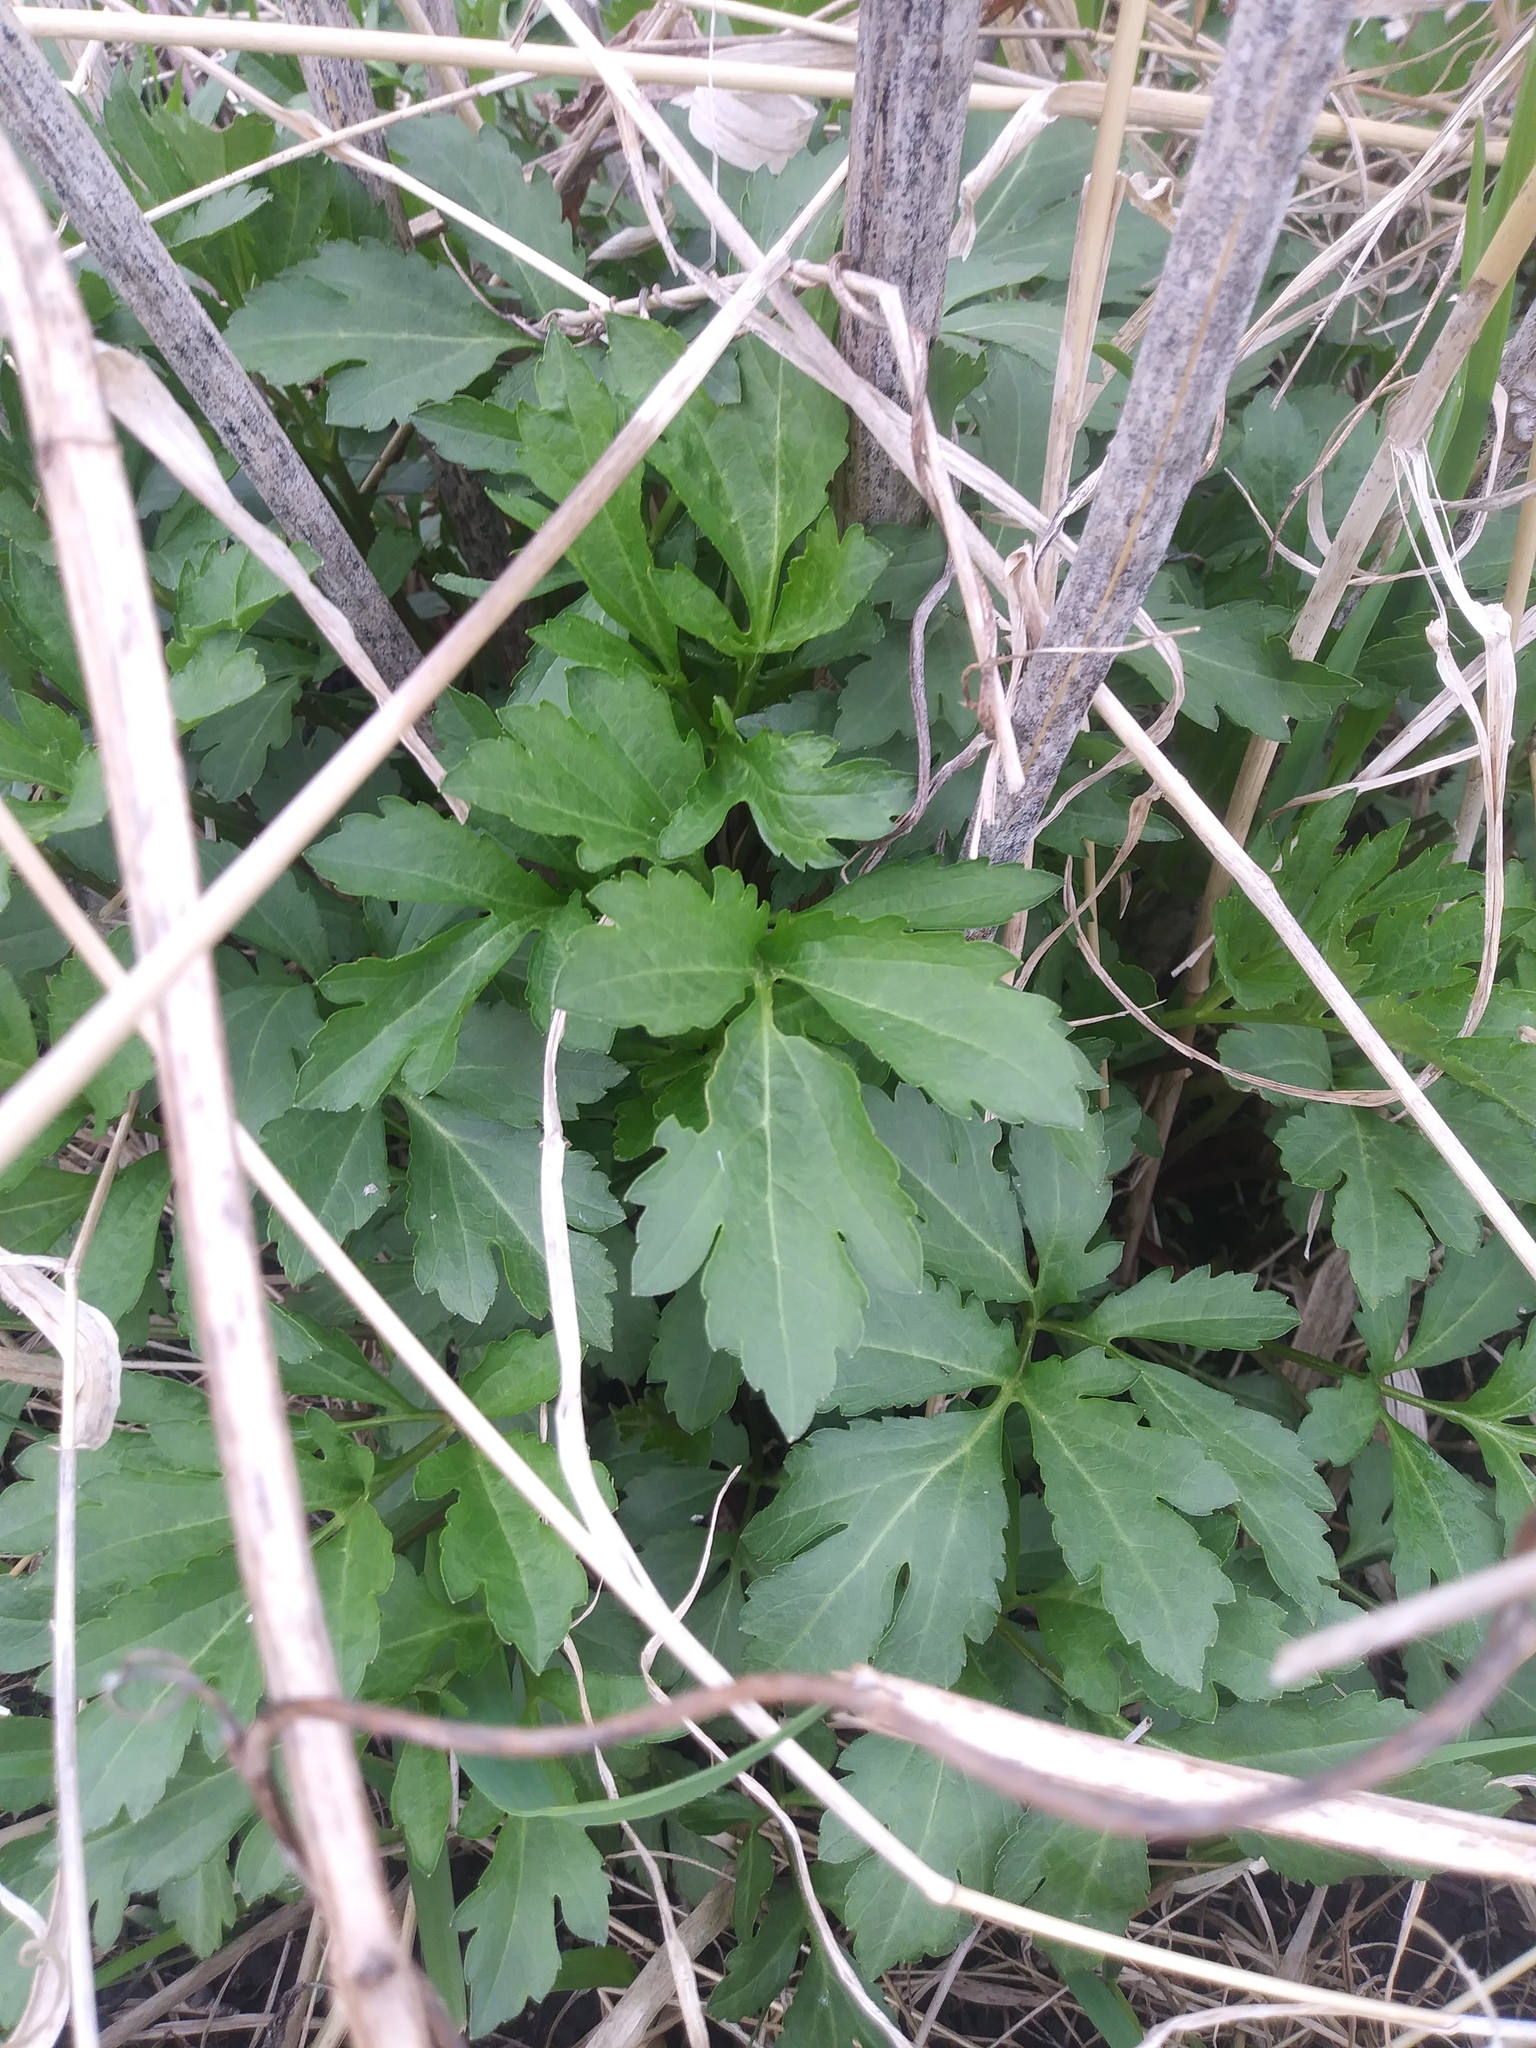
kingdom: Plantae
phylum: Tracheophyta
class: Magnoliopsida
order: Asterales
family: Asteraceae
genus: Rudbeckia
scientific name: Rudbeckia laciniata
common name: Coneflower
